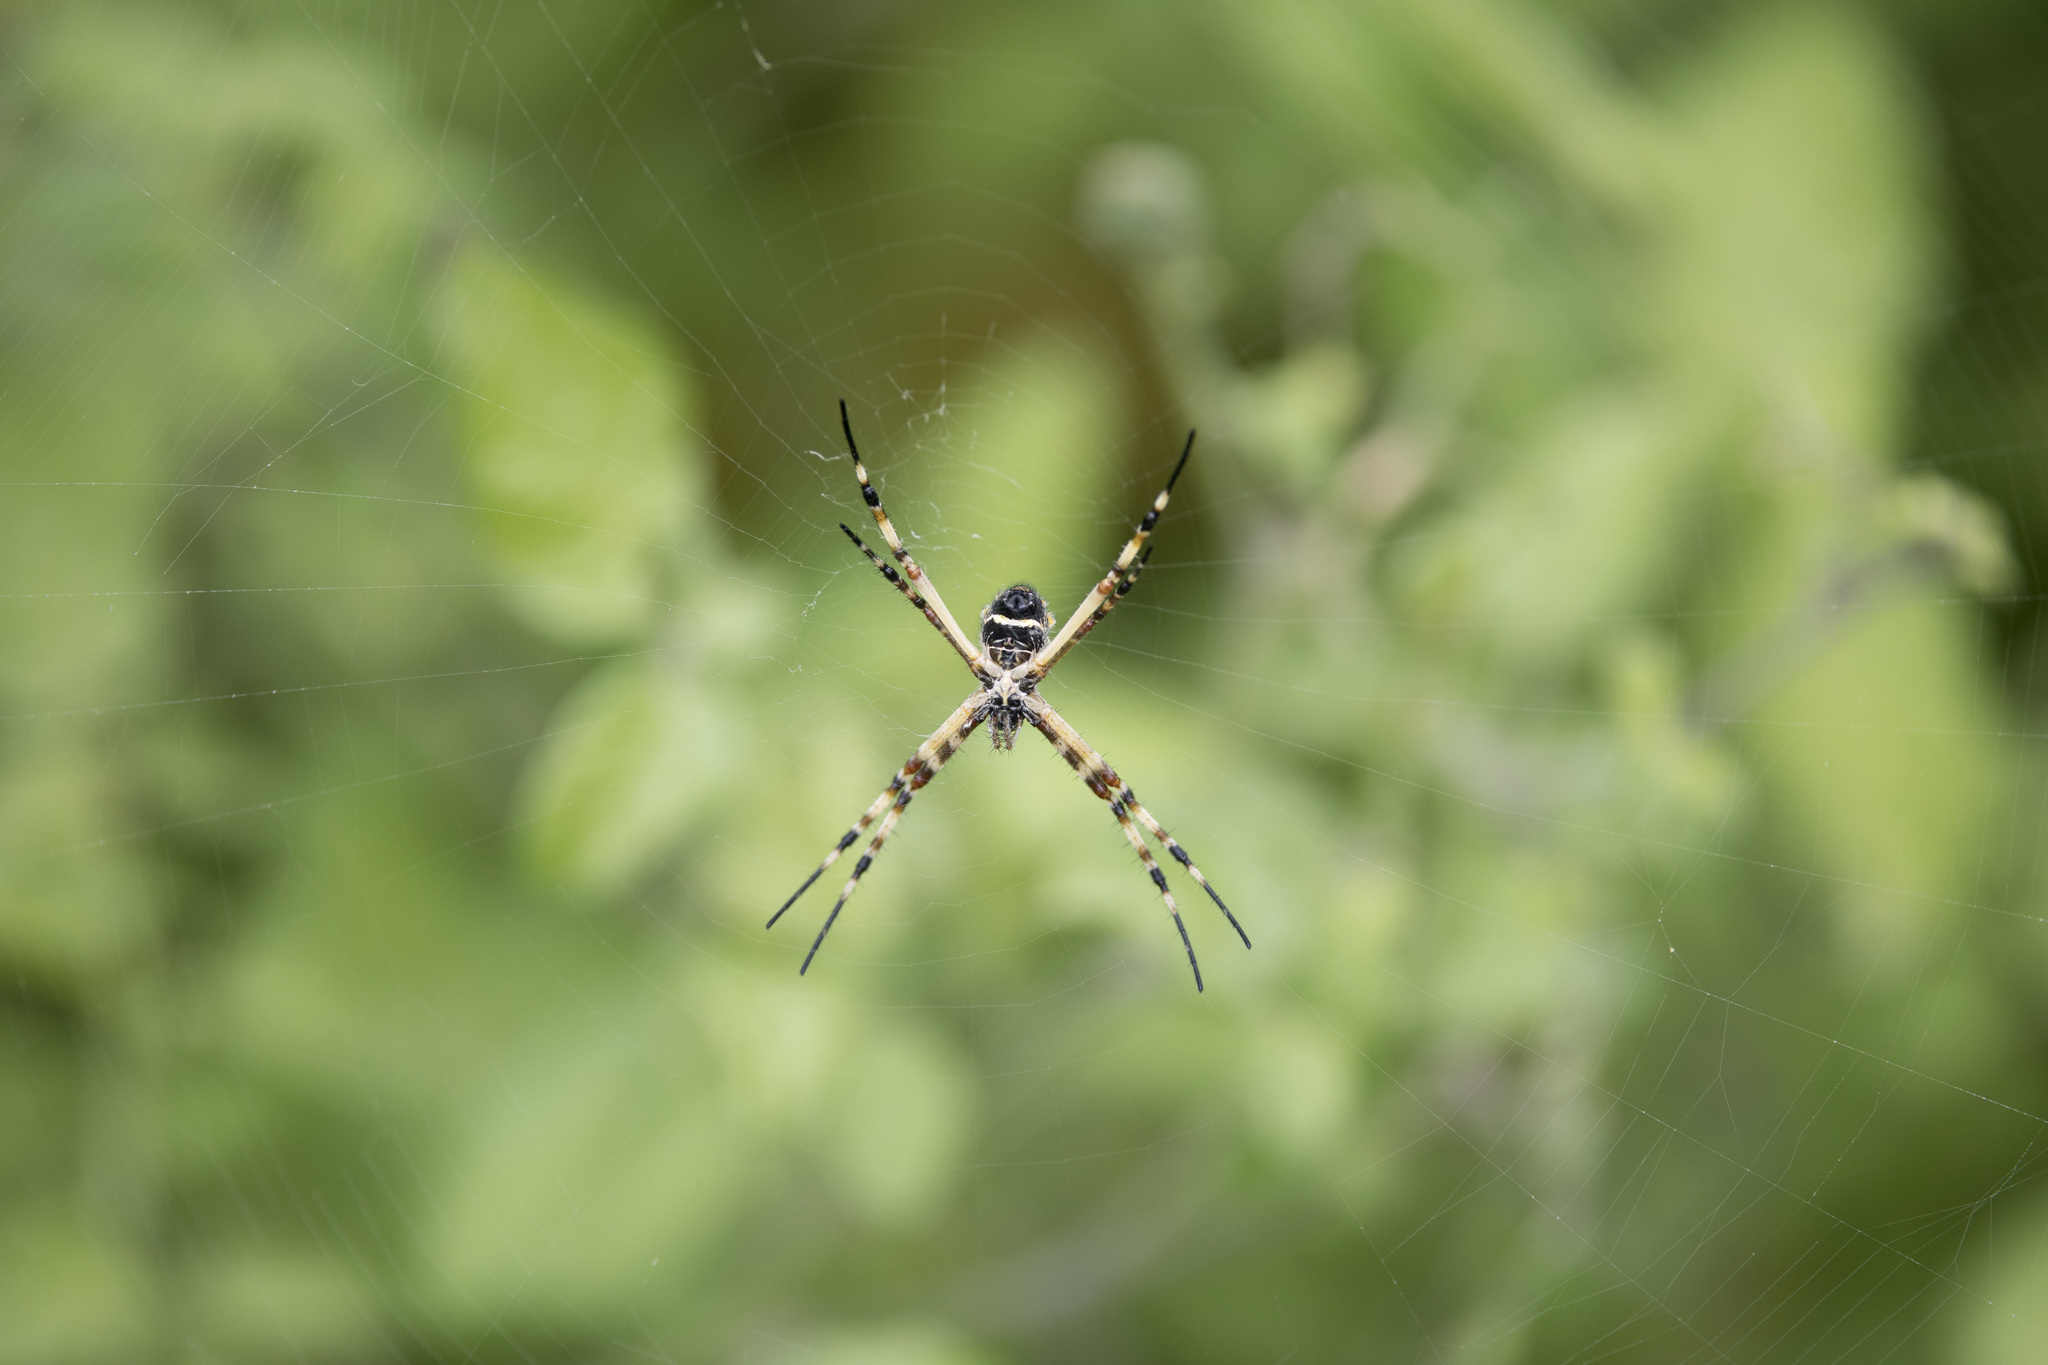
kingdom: Animalia
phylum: Arthropoda
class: Arachnida
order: Araneae
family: Araneidae
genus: Argiope
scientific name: Argiope argentata
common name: Orb weavers
